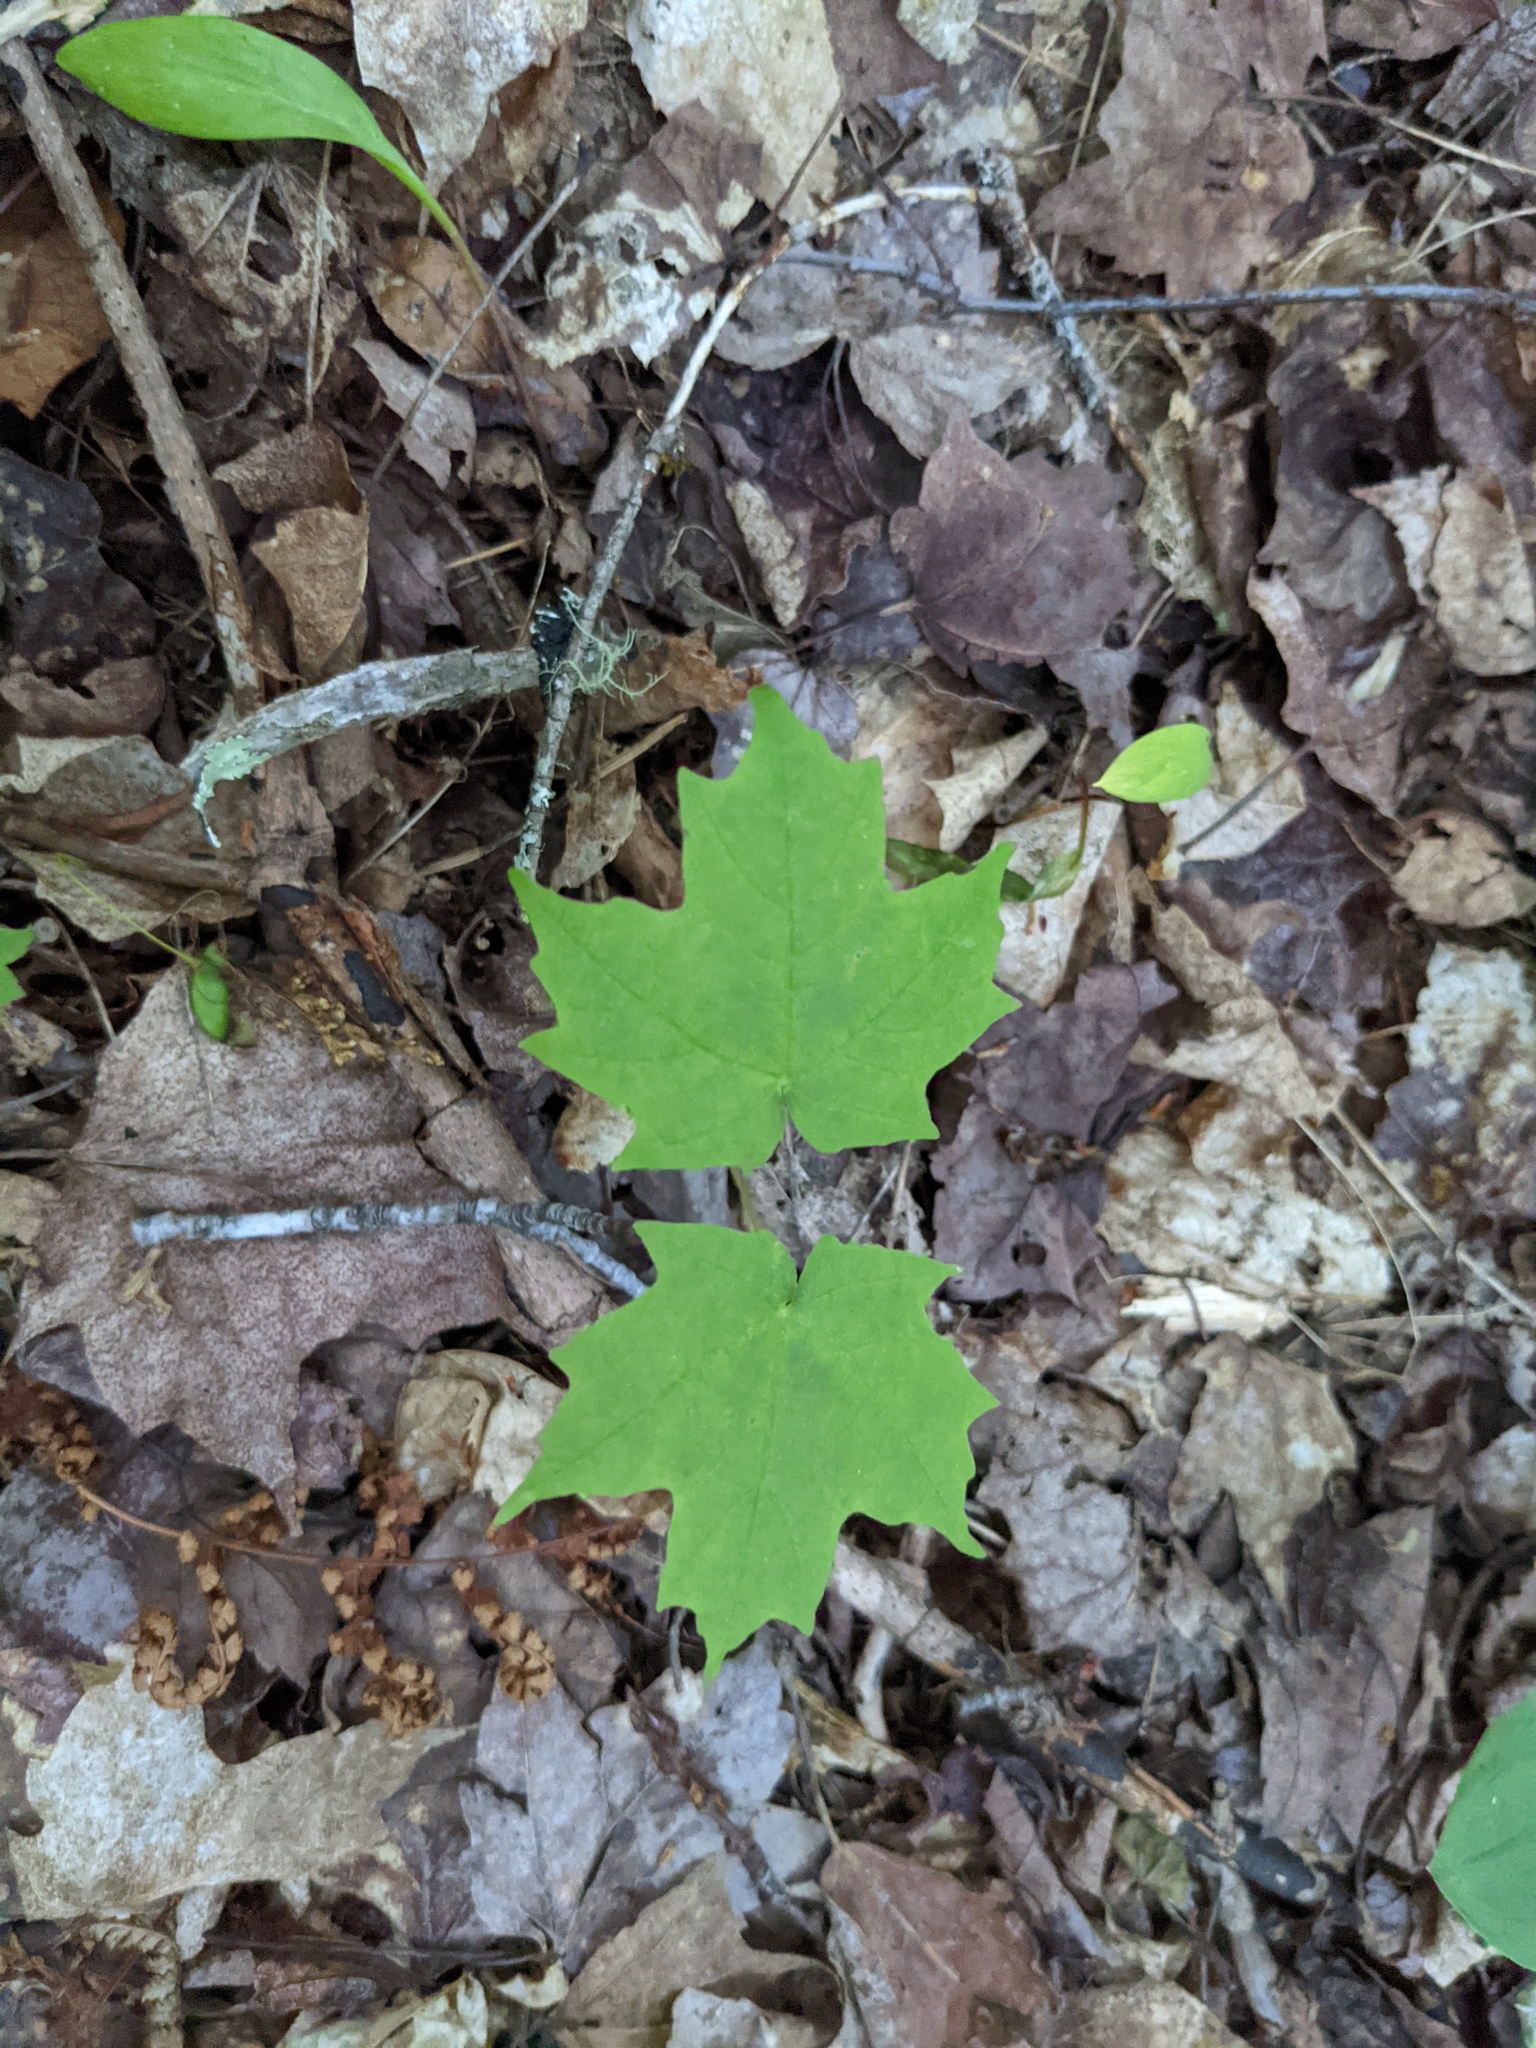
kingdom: Plantae
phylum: Tracheophyta
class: Magnoliopsida
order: Sapindales
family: Sapindaceae
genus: Acer
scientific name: Acer saccharum
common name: Sugar maple
